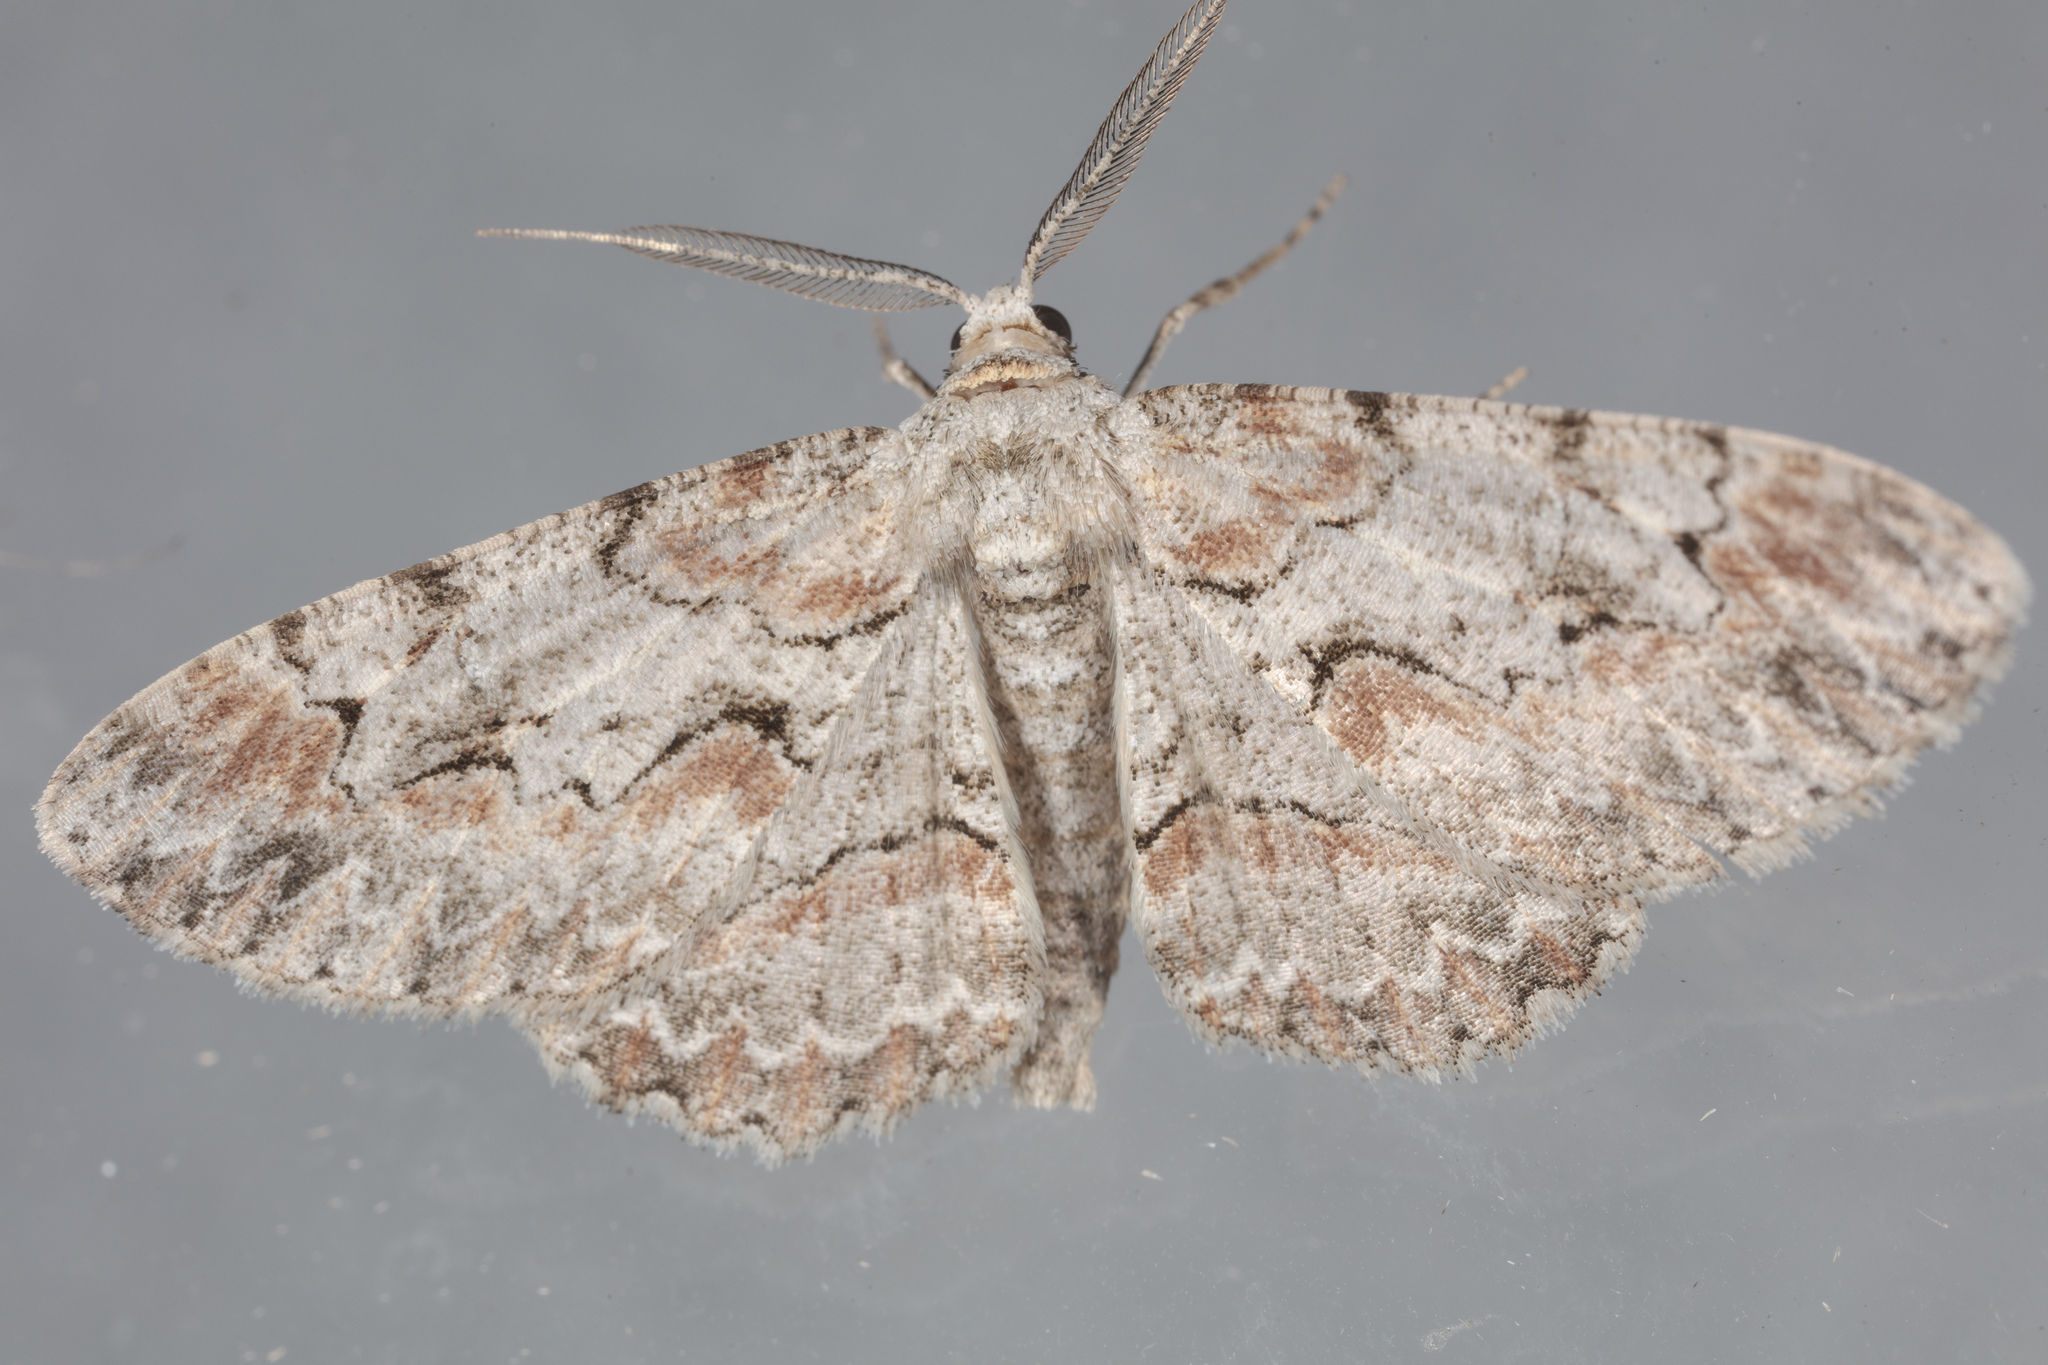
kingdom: Animalia
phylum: Arthropoda
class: Insecta
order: Lepidoptera
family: Geometridae
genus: Iridopsis
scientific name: Iridopsis defectaria
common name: Brown-shaded gray
